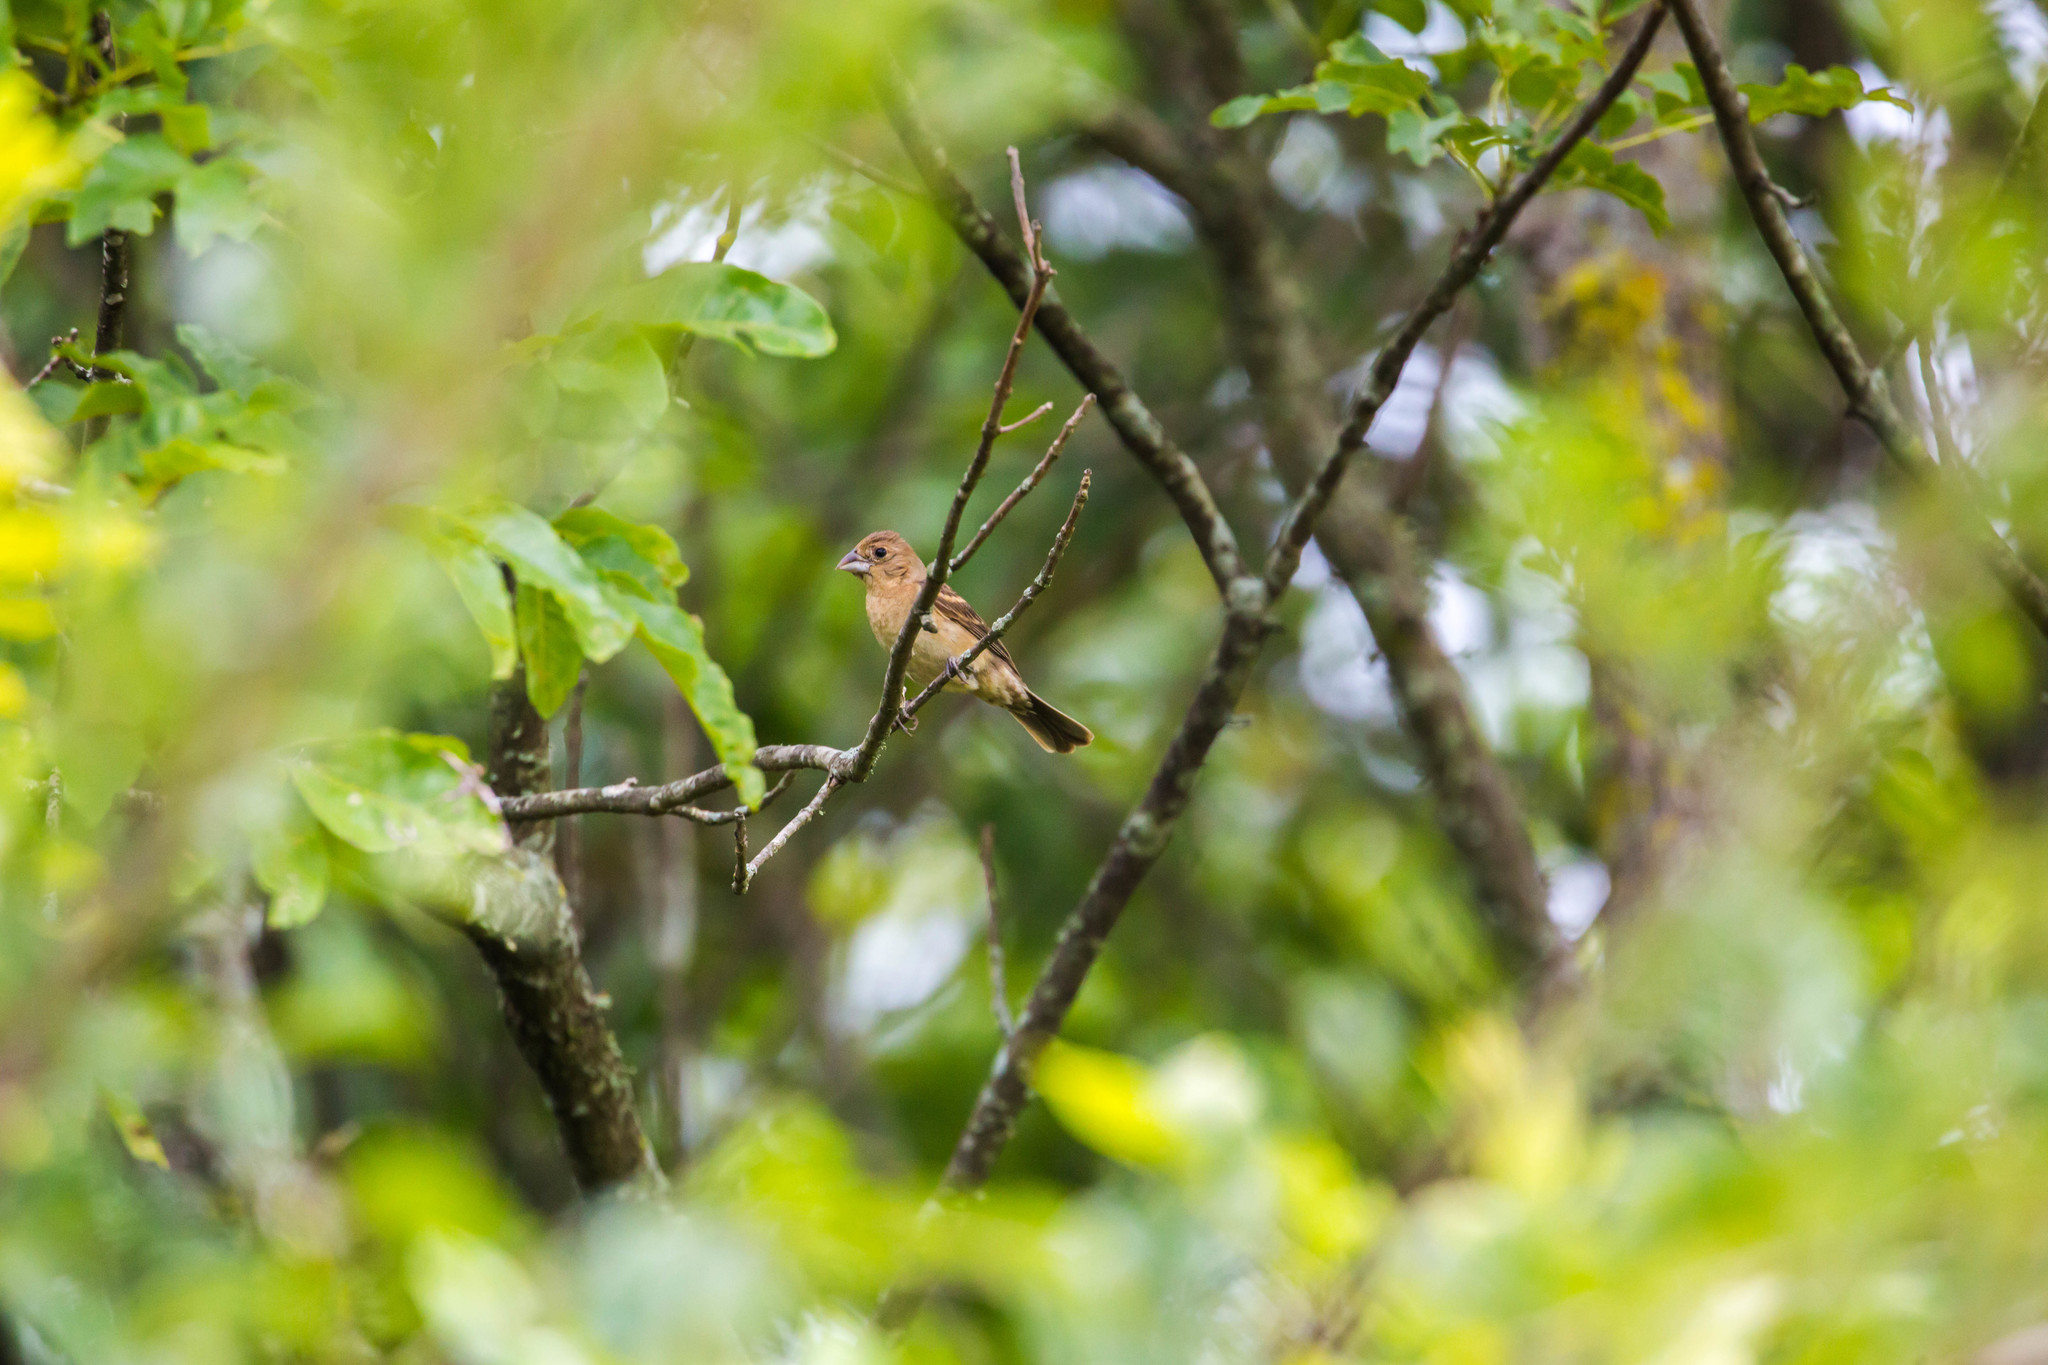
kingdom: Animalia
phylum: Chordata
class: Aves
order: Passeriformes
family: Cardinalidae
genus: Passerina
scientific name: Passerina caerulea
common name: Blue grosbeak
